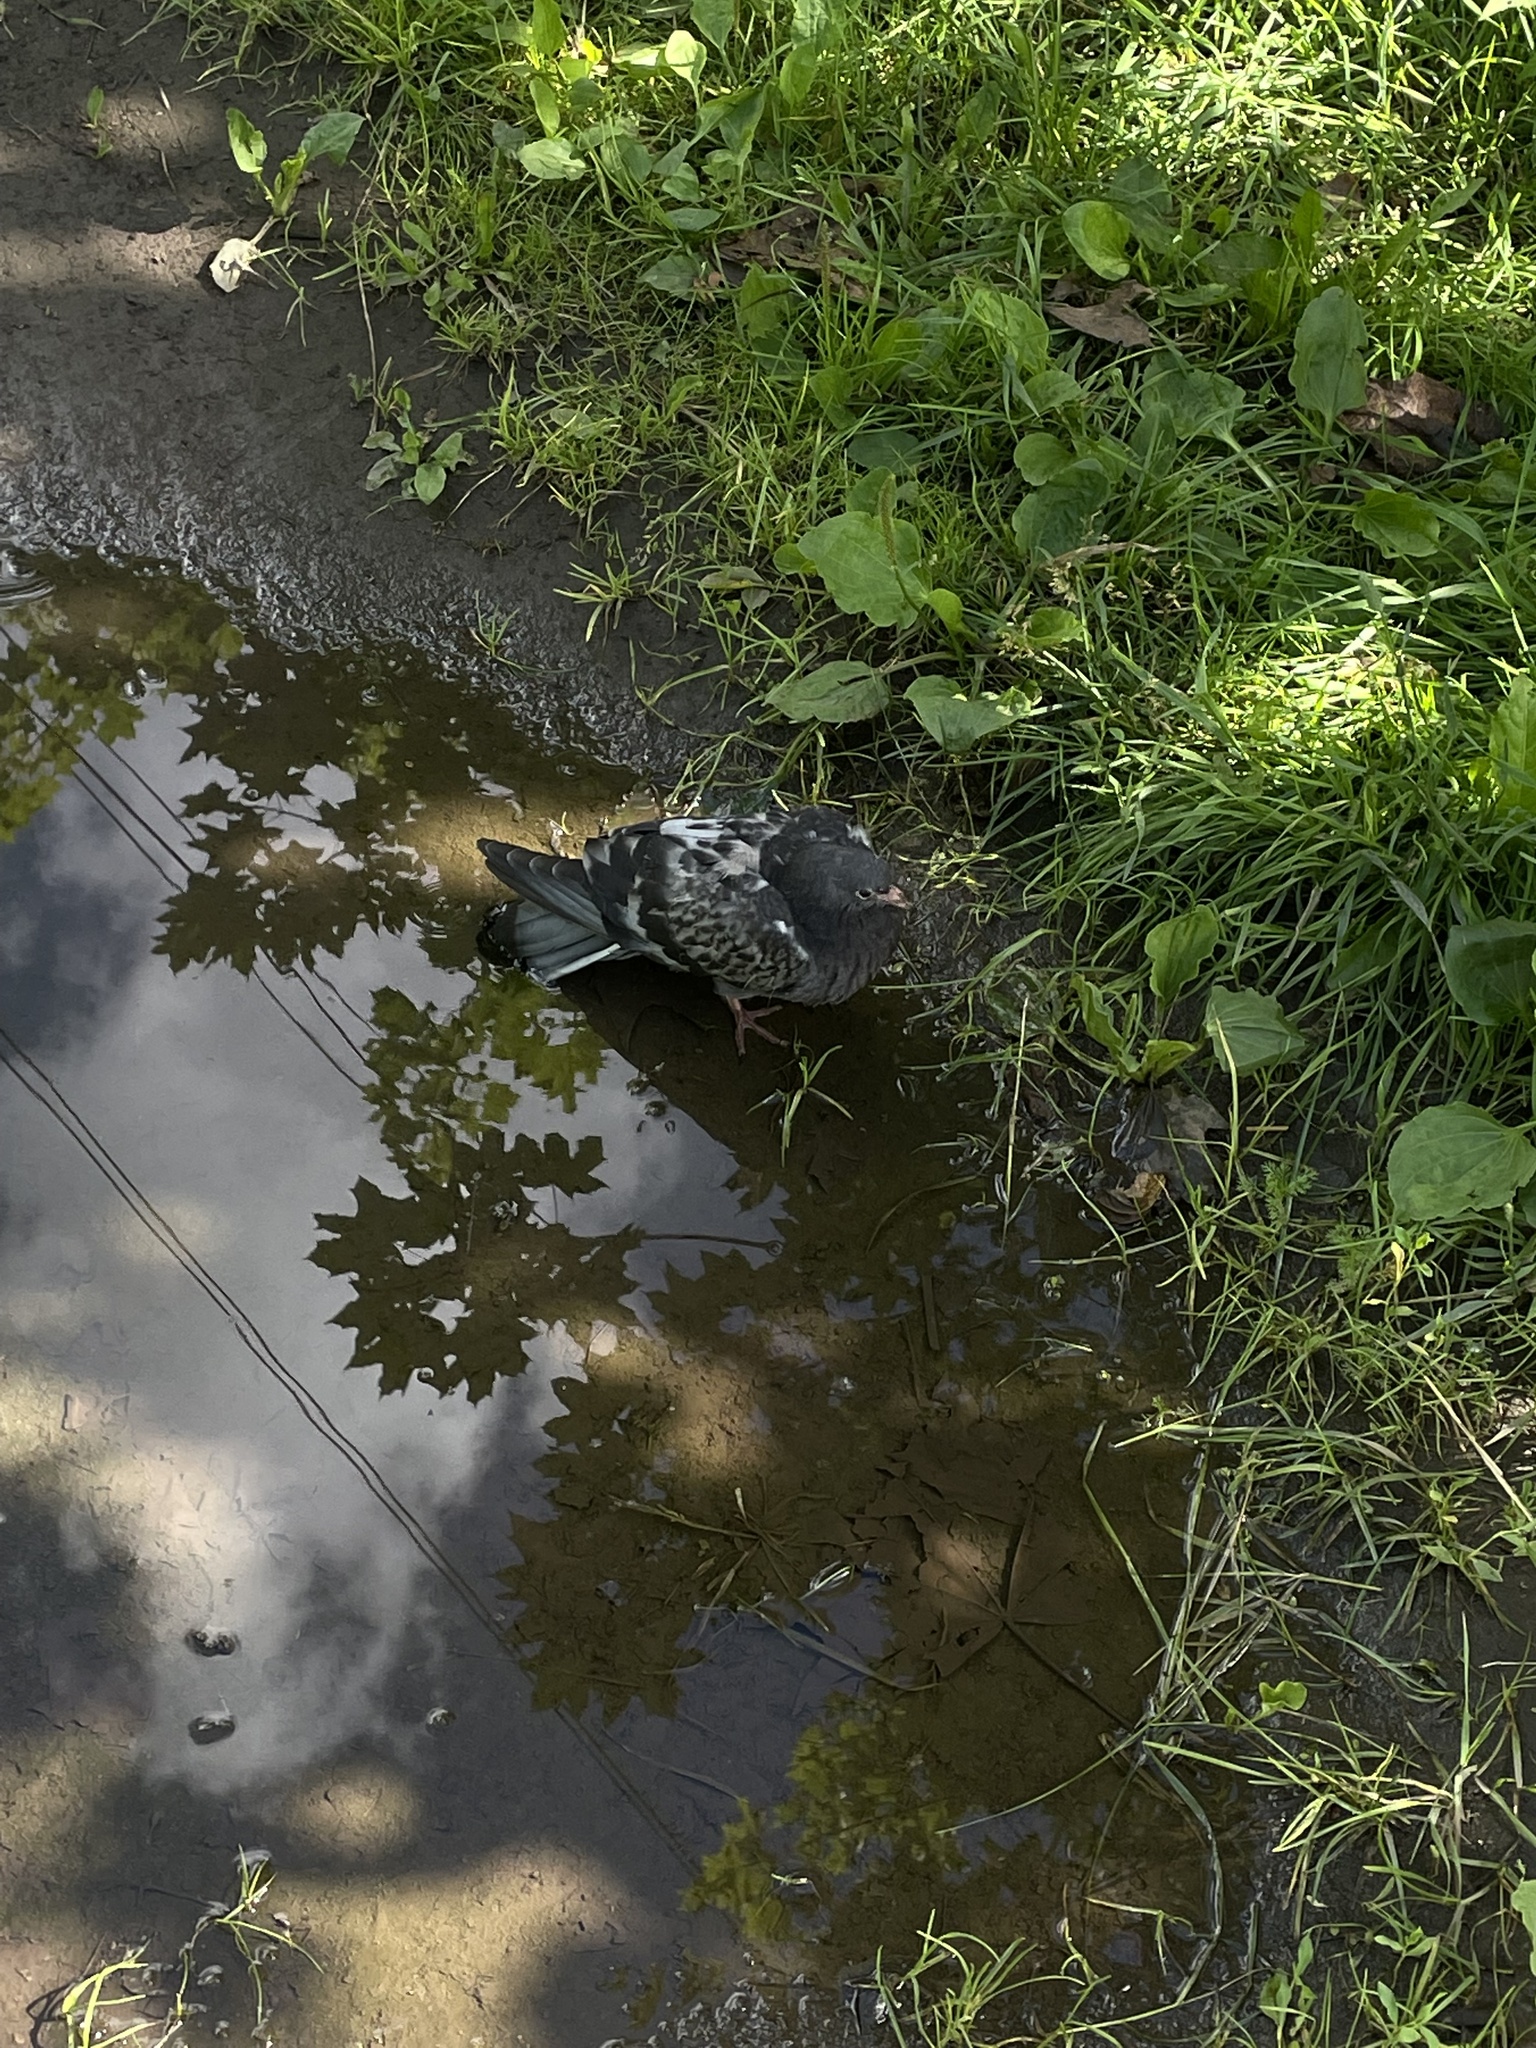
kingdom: Animalia
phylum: Chordata
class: Aves
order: Columbiformes
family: Columbidae
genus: Columba
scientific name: Columba livia
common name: Rock pigeon
